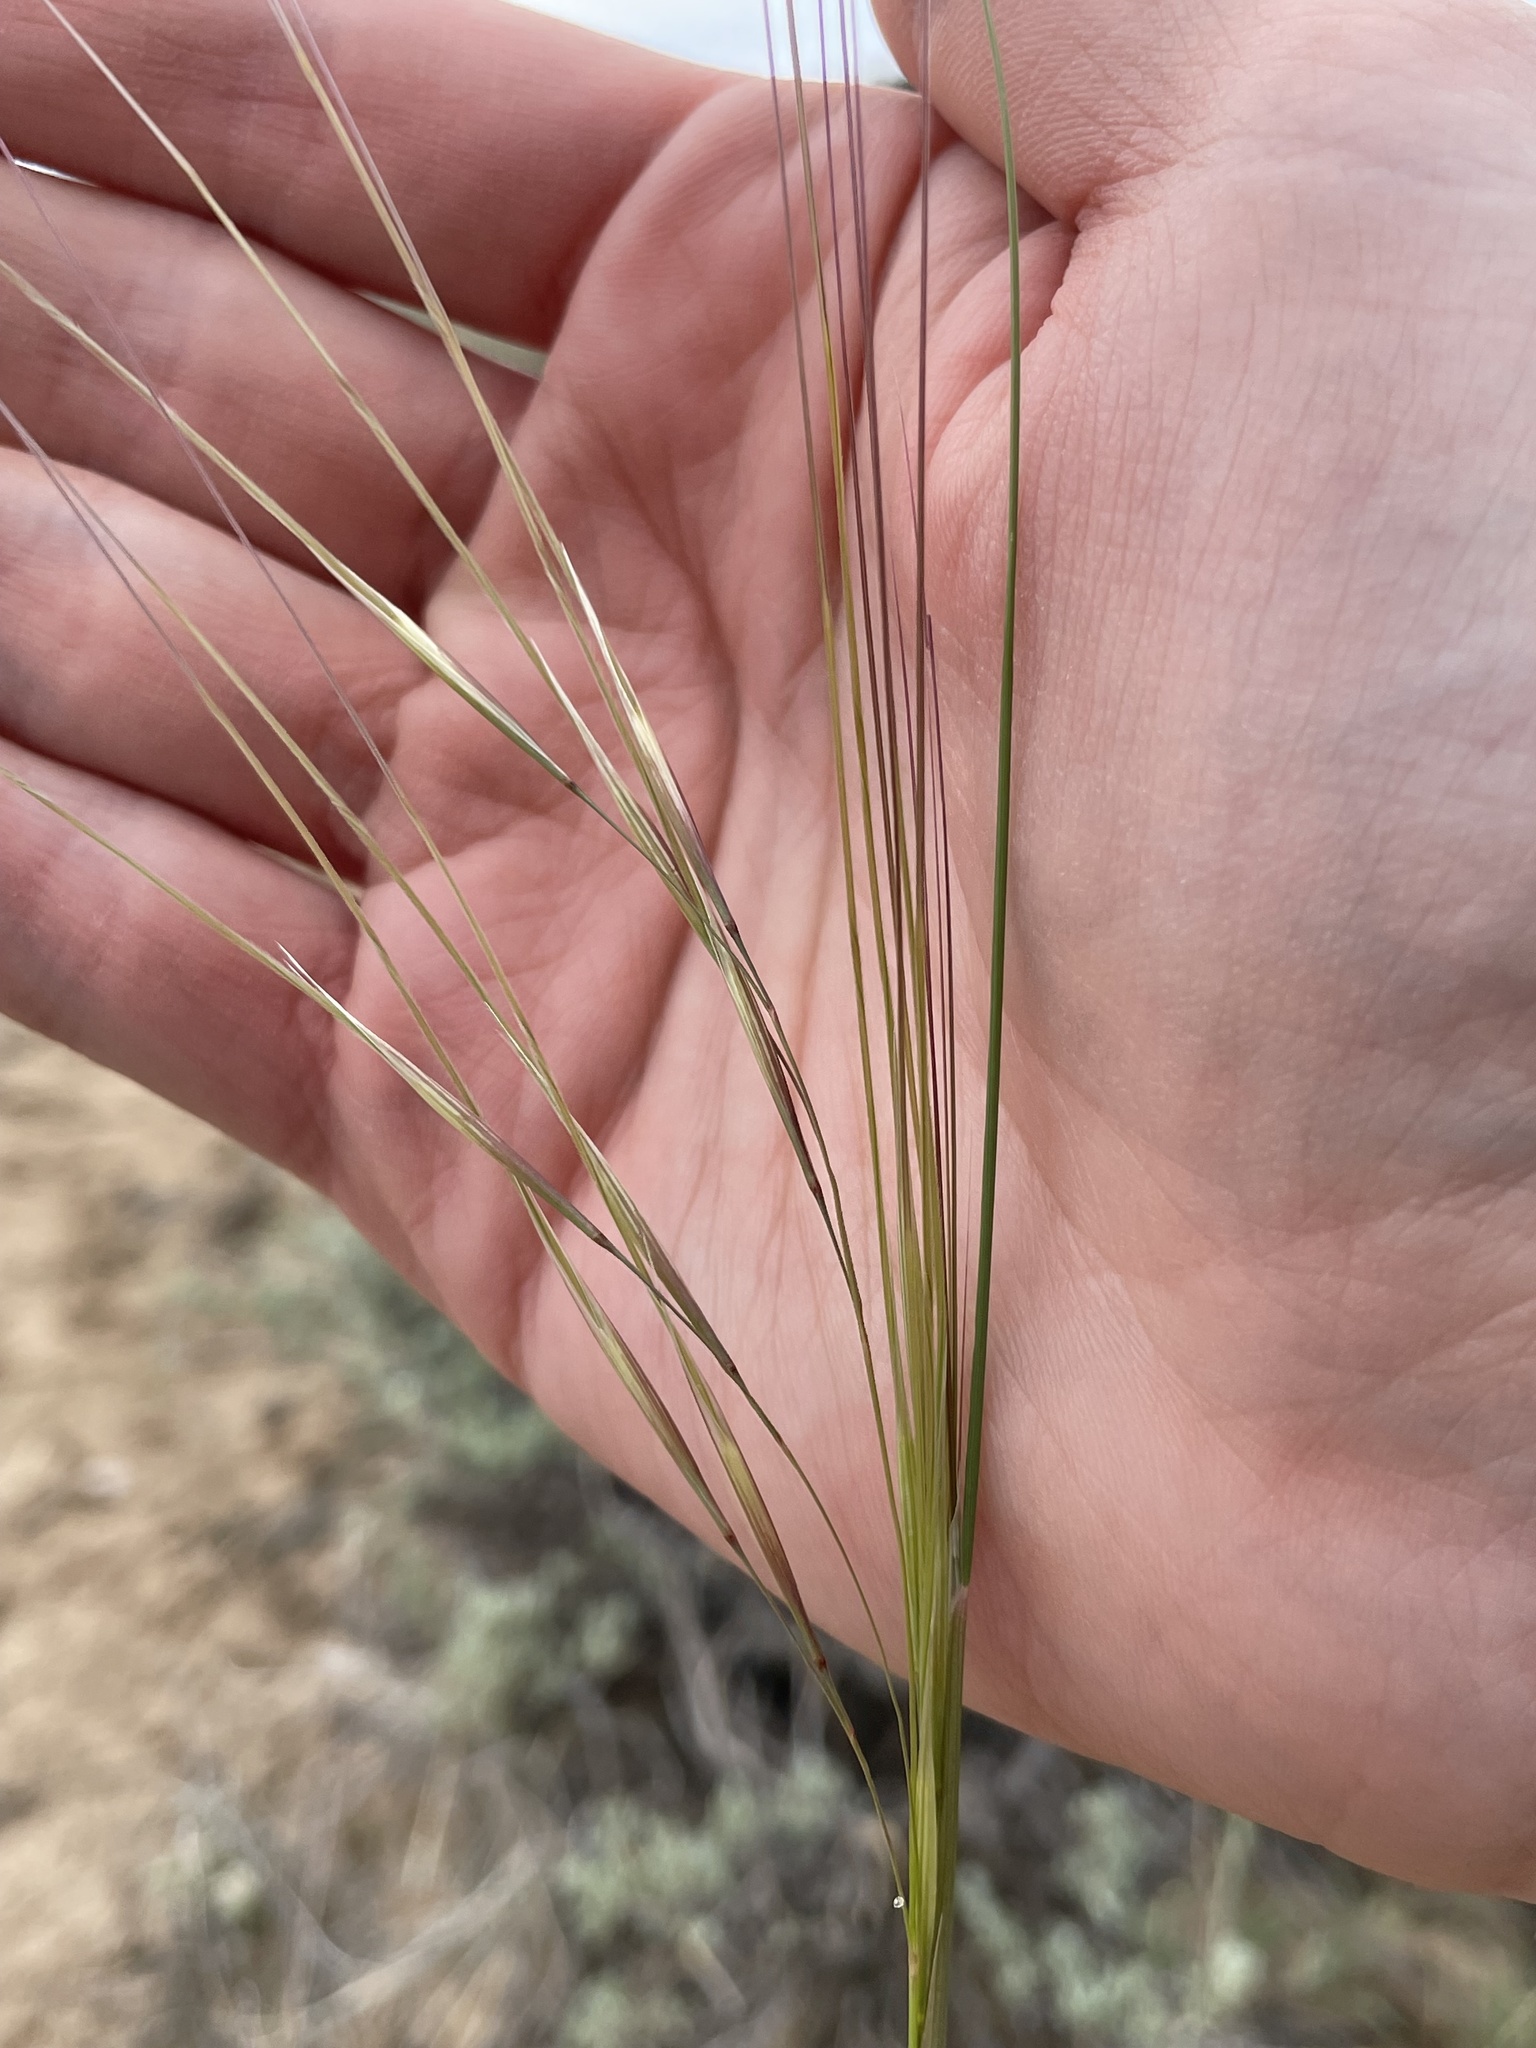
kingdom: Plantae
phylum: Tracheophyta
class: Liliopsida
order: Poales
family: Poaceae
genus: Hesperostipa
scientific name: Hesperostipa comata
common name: Needle-and-thread grass
